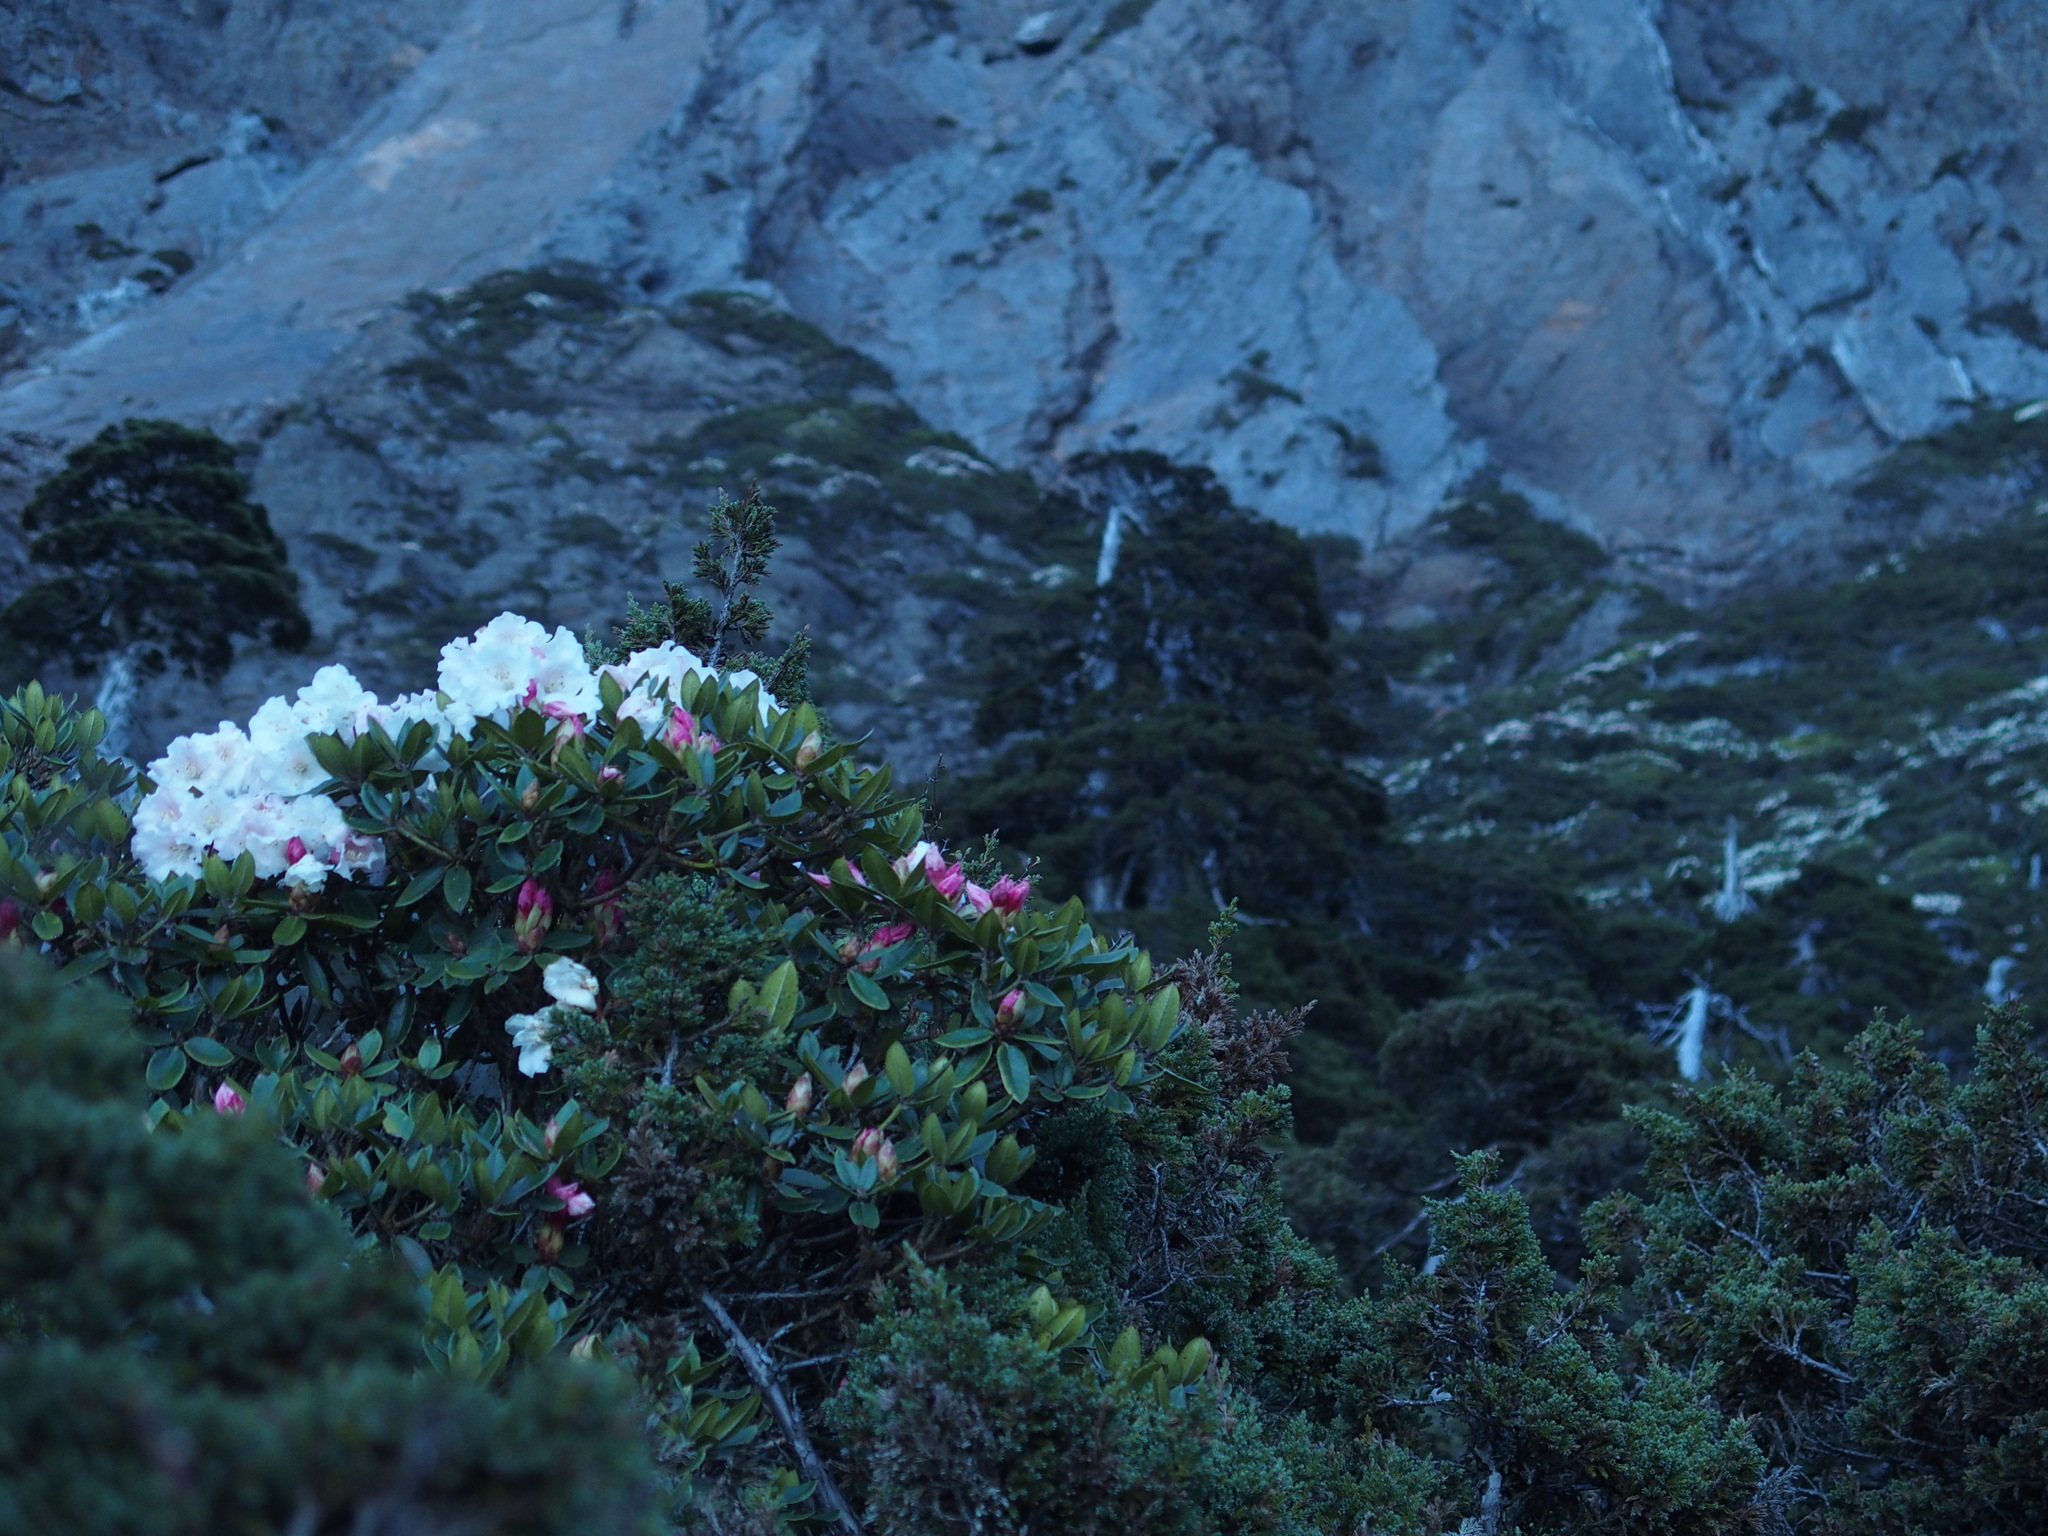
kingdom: Plantae
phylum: Tracheophyta
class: Magnoliopsida
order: Ericales
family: Ericaceae
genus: Rhododendron
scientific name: Rhododendron pseudochrysanthum
